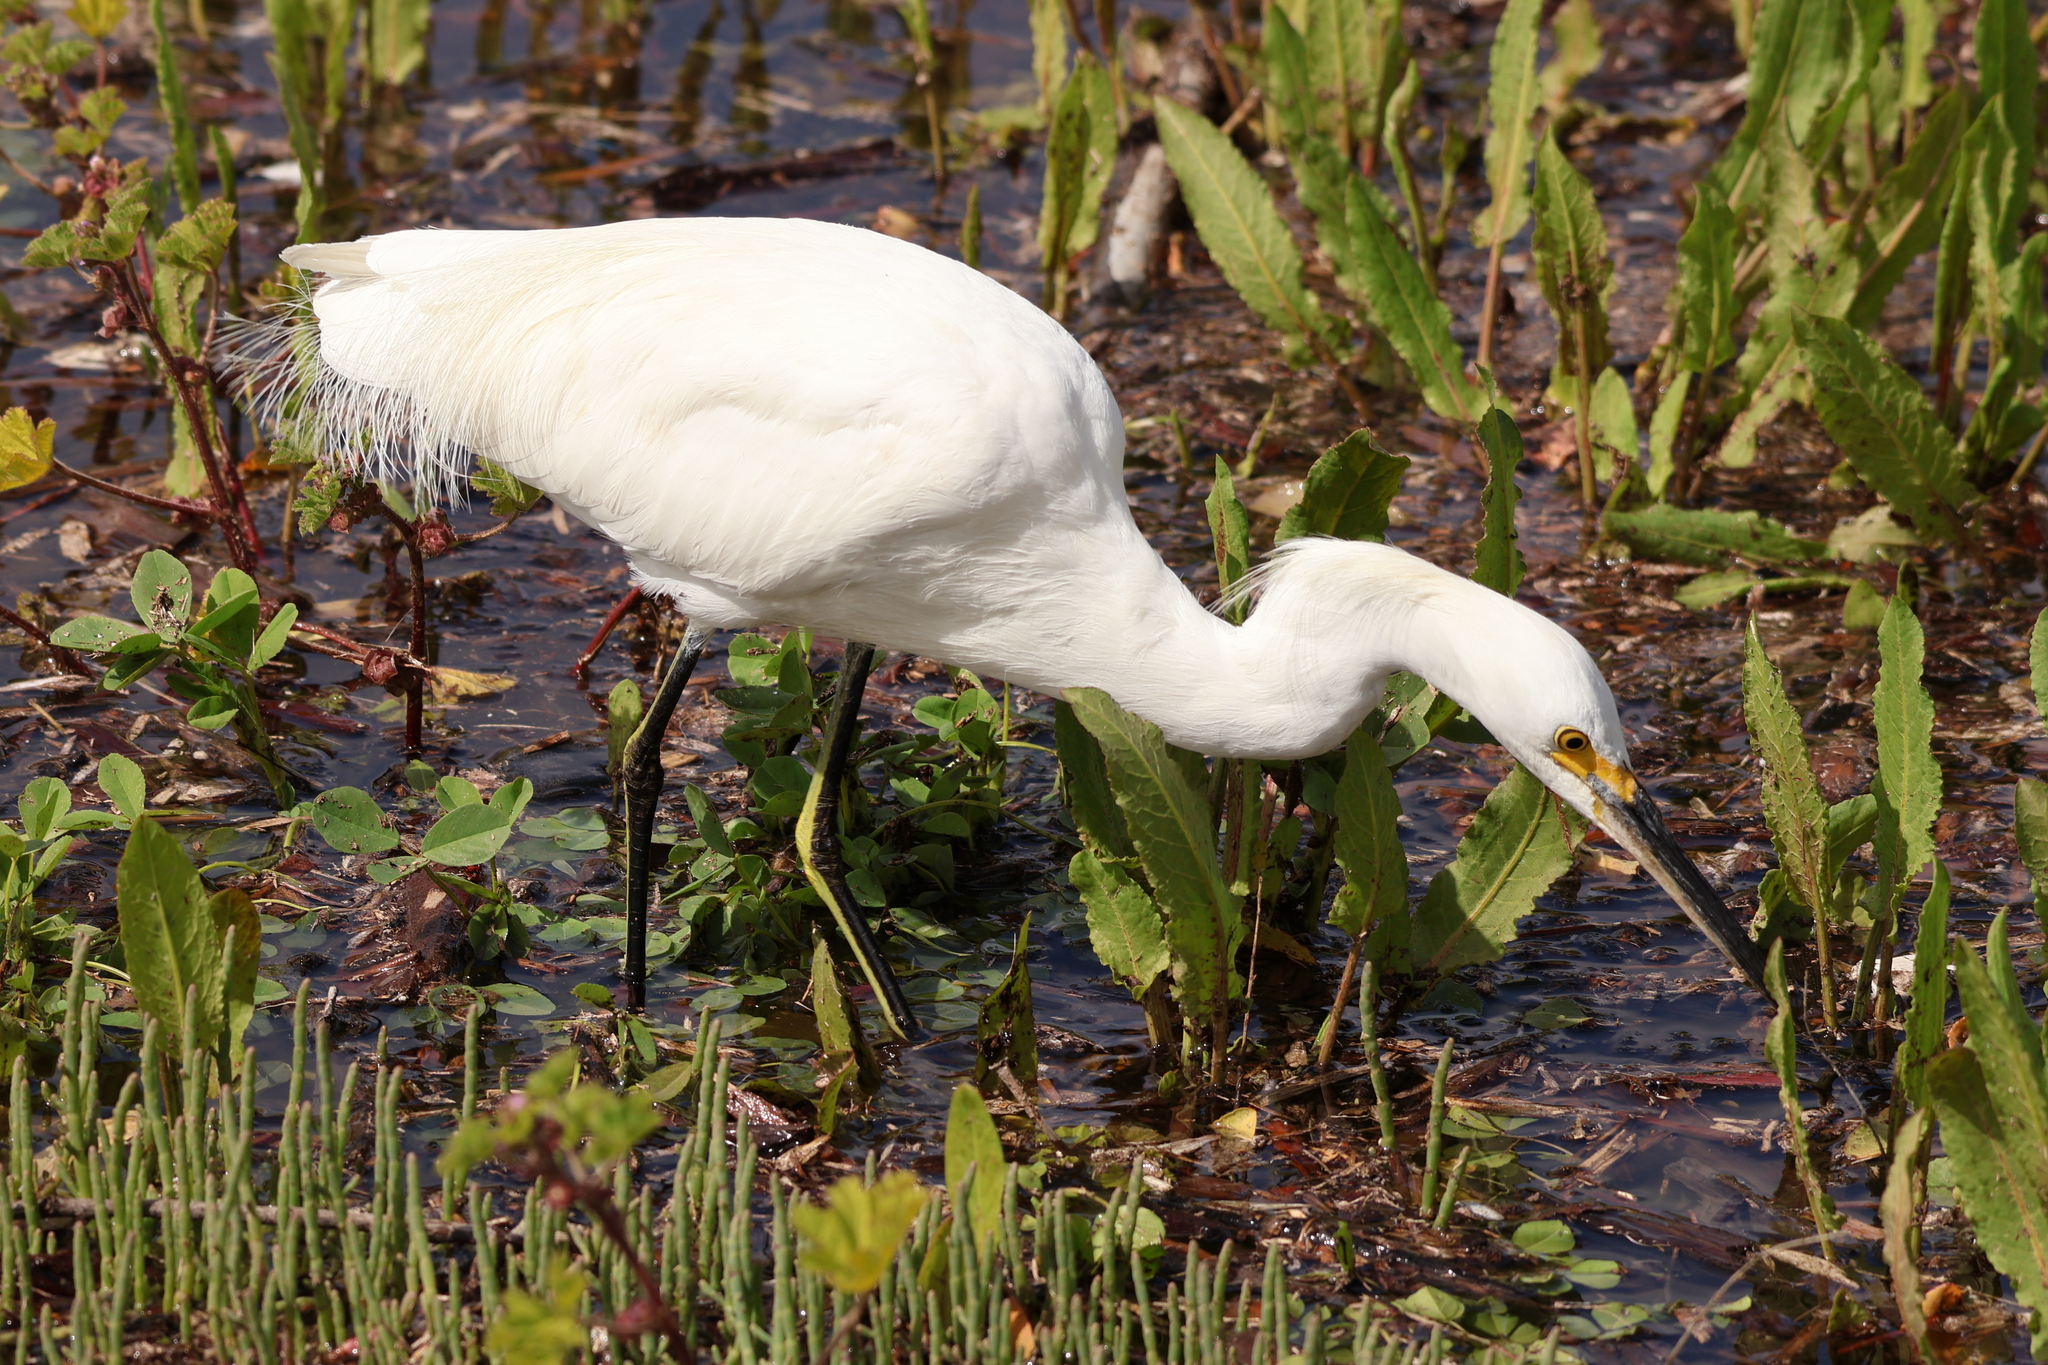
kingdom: Animalia
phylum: Chordata
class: Aves
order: Pelecaniformes
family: Ardeidae
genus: Egretta
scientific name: Egretta thula
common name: Snowy egret
